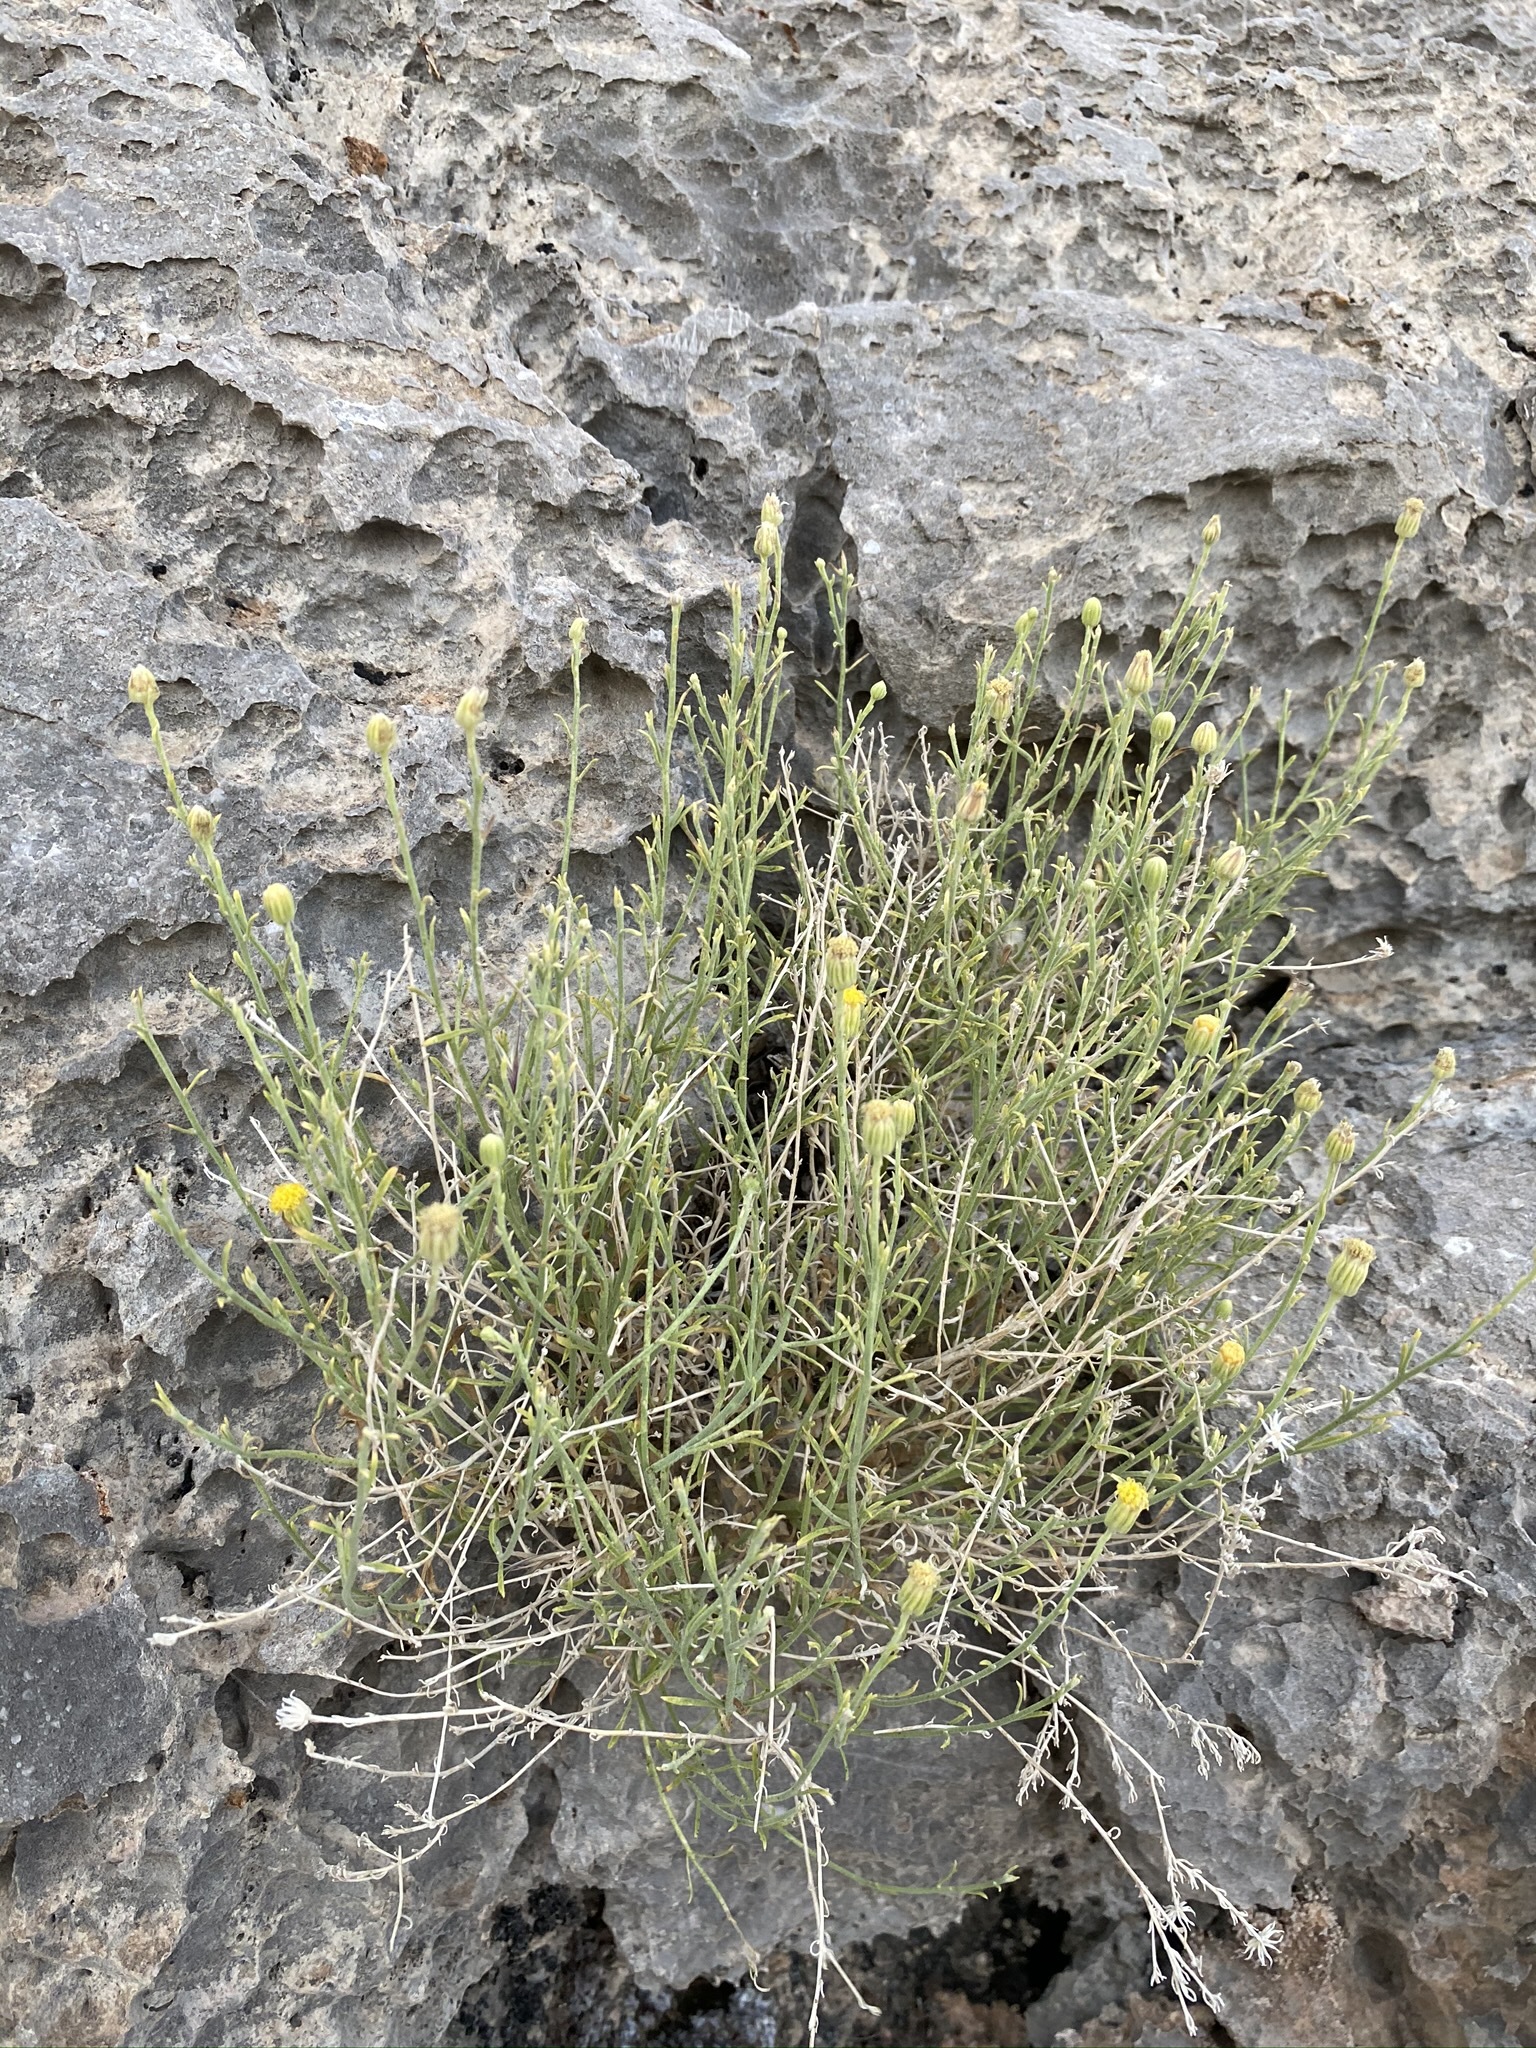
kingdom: Plantae
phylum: Tracheophyta
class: Magnoliopsida
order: Asterales
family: Asteraceae
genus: Laphamia
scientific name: Laphamia gracilis
